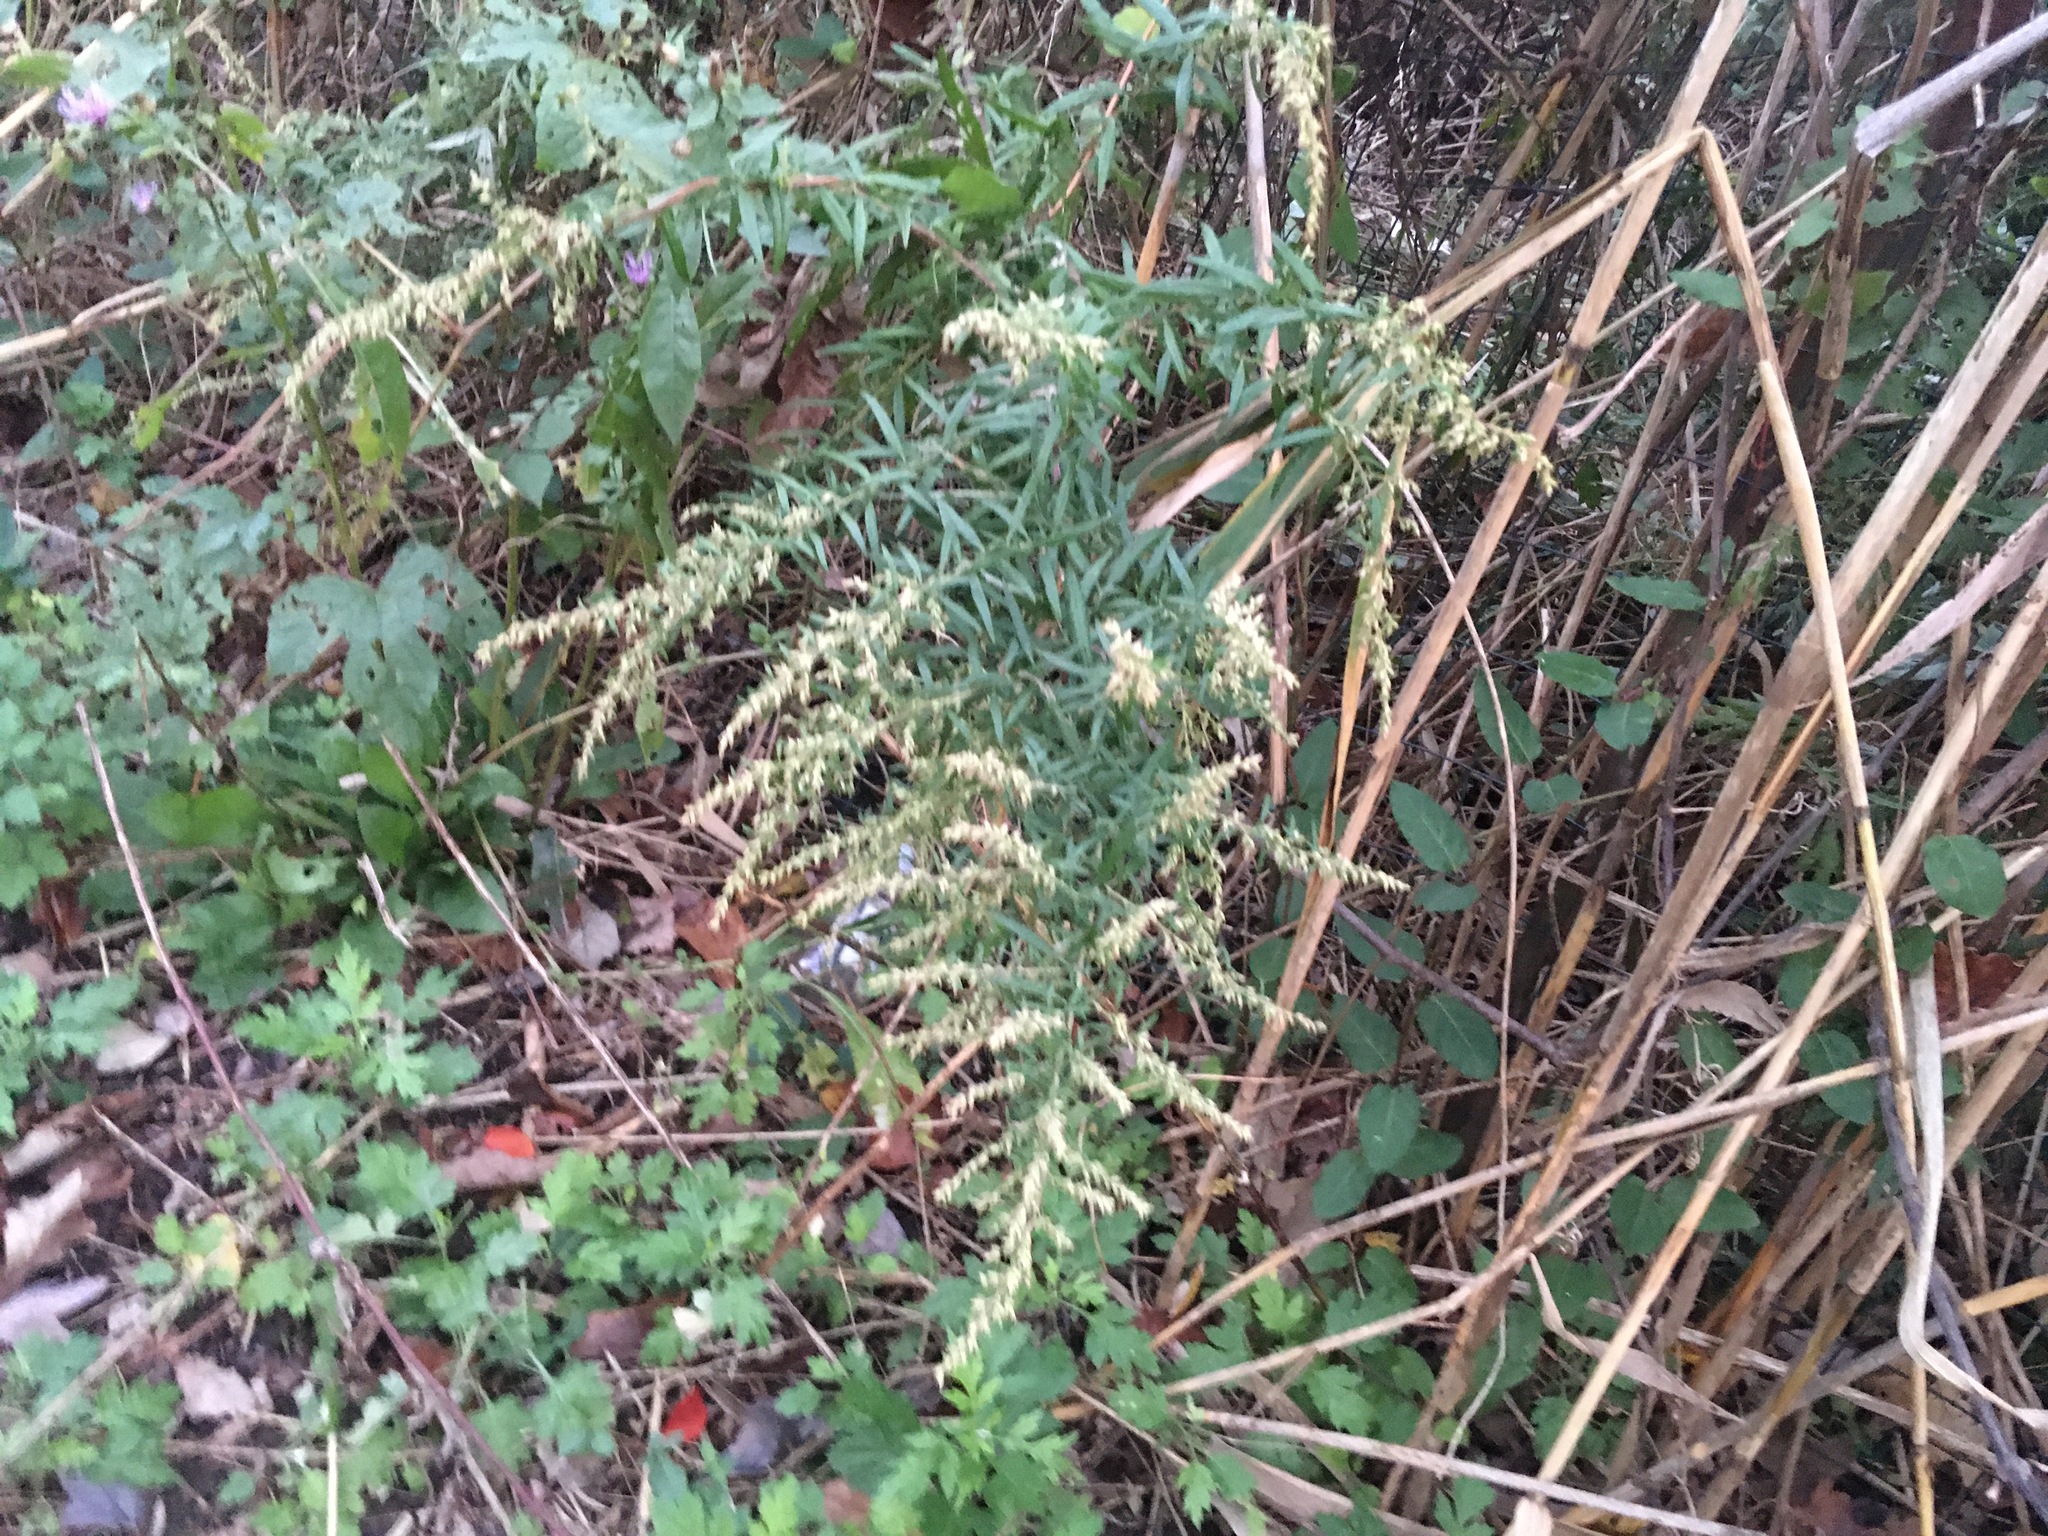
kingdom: Plantae
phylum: Tracheophyta
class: Magnoliopsida
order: Asterales
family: Asteraceae
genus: Artemisia
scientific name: Artemisia vulgaris
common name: Mugwort
